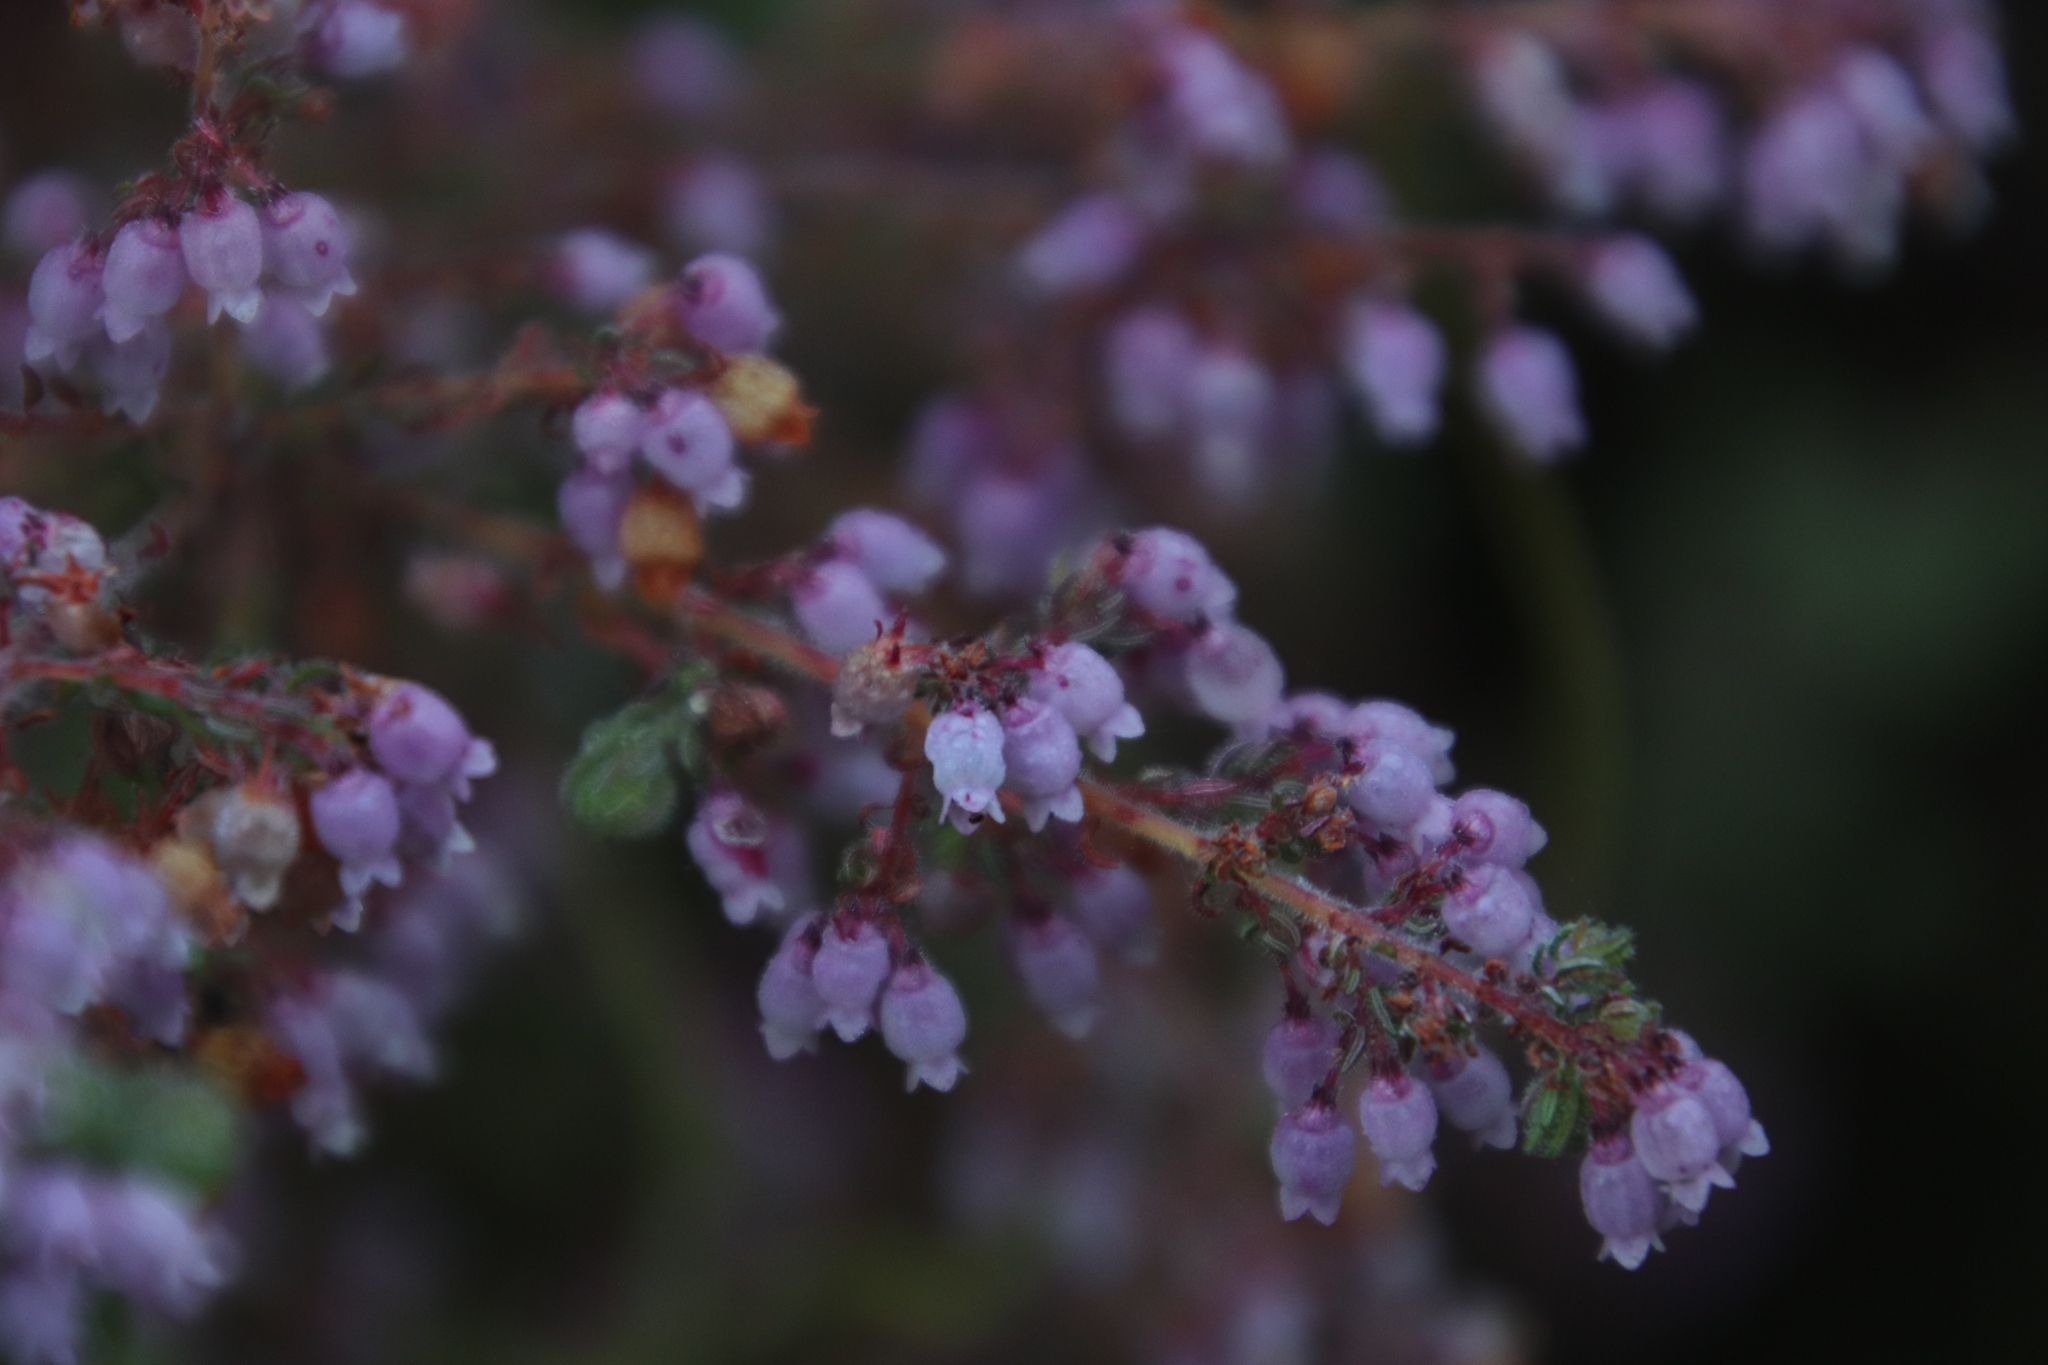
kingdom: Plantae
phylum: Tracheophyta
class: Magnoliopsida
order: Ericales
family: Ericaceae
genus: Erica
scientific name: Erica bergiana
